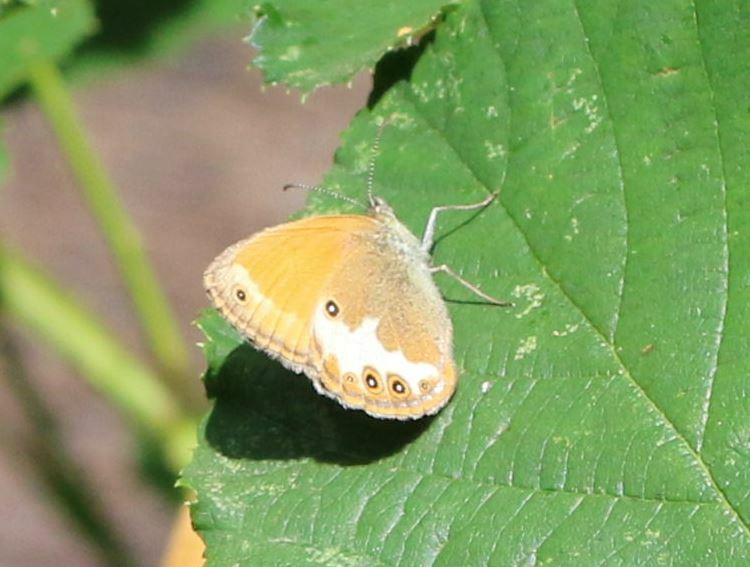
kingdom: Animalia
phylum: Arthropoda
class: Insecta
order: Lepidoptera
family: Nymphalidae
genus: Coenonympha
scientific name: Coenonympha arcania
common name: Pearly heath
